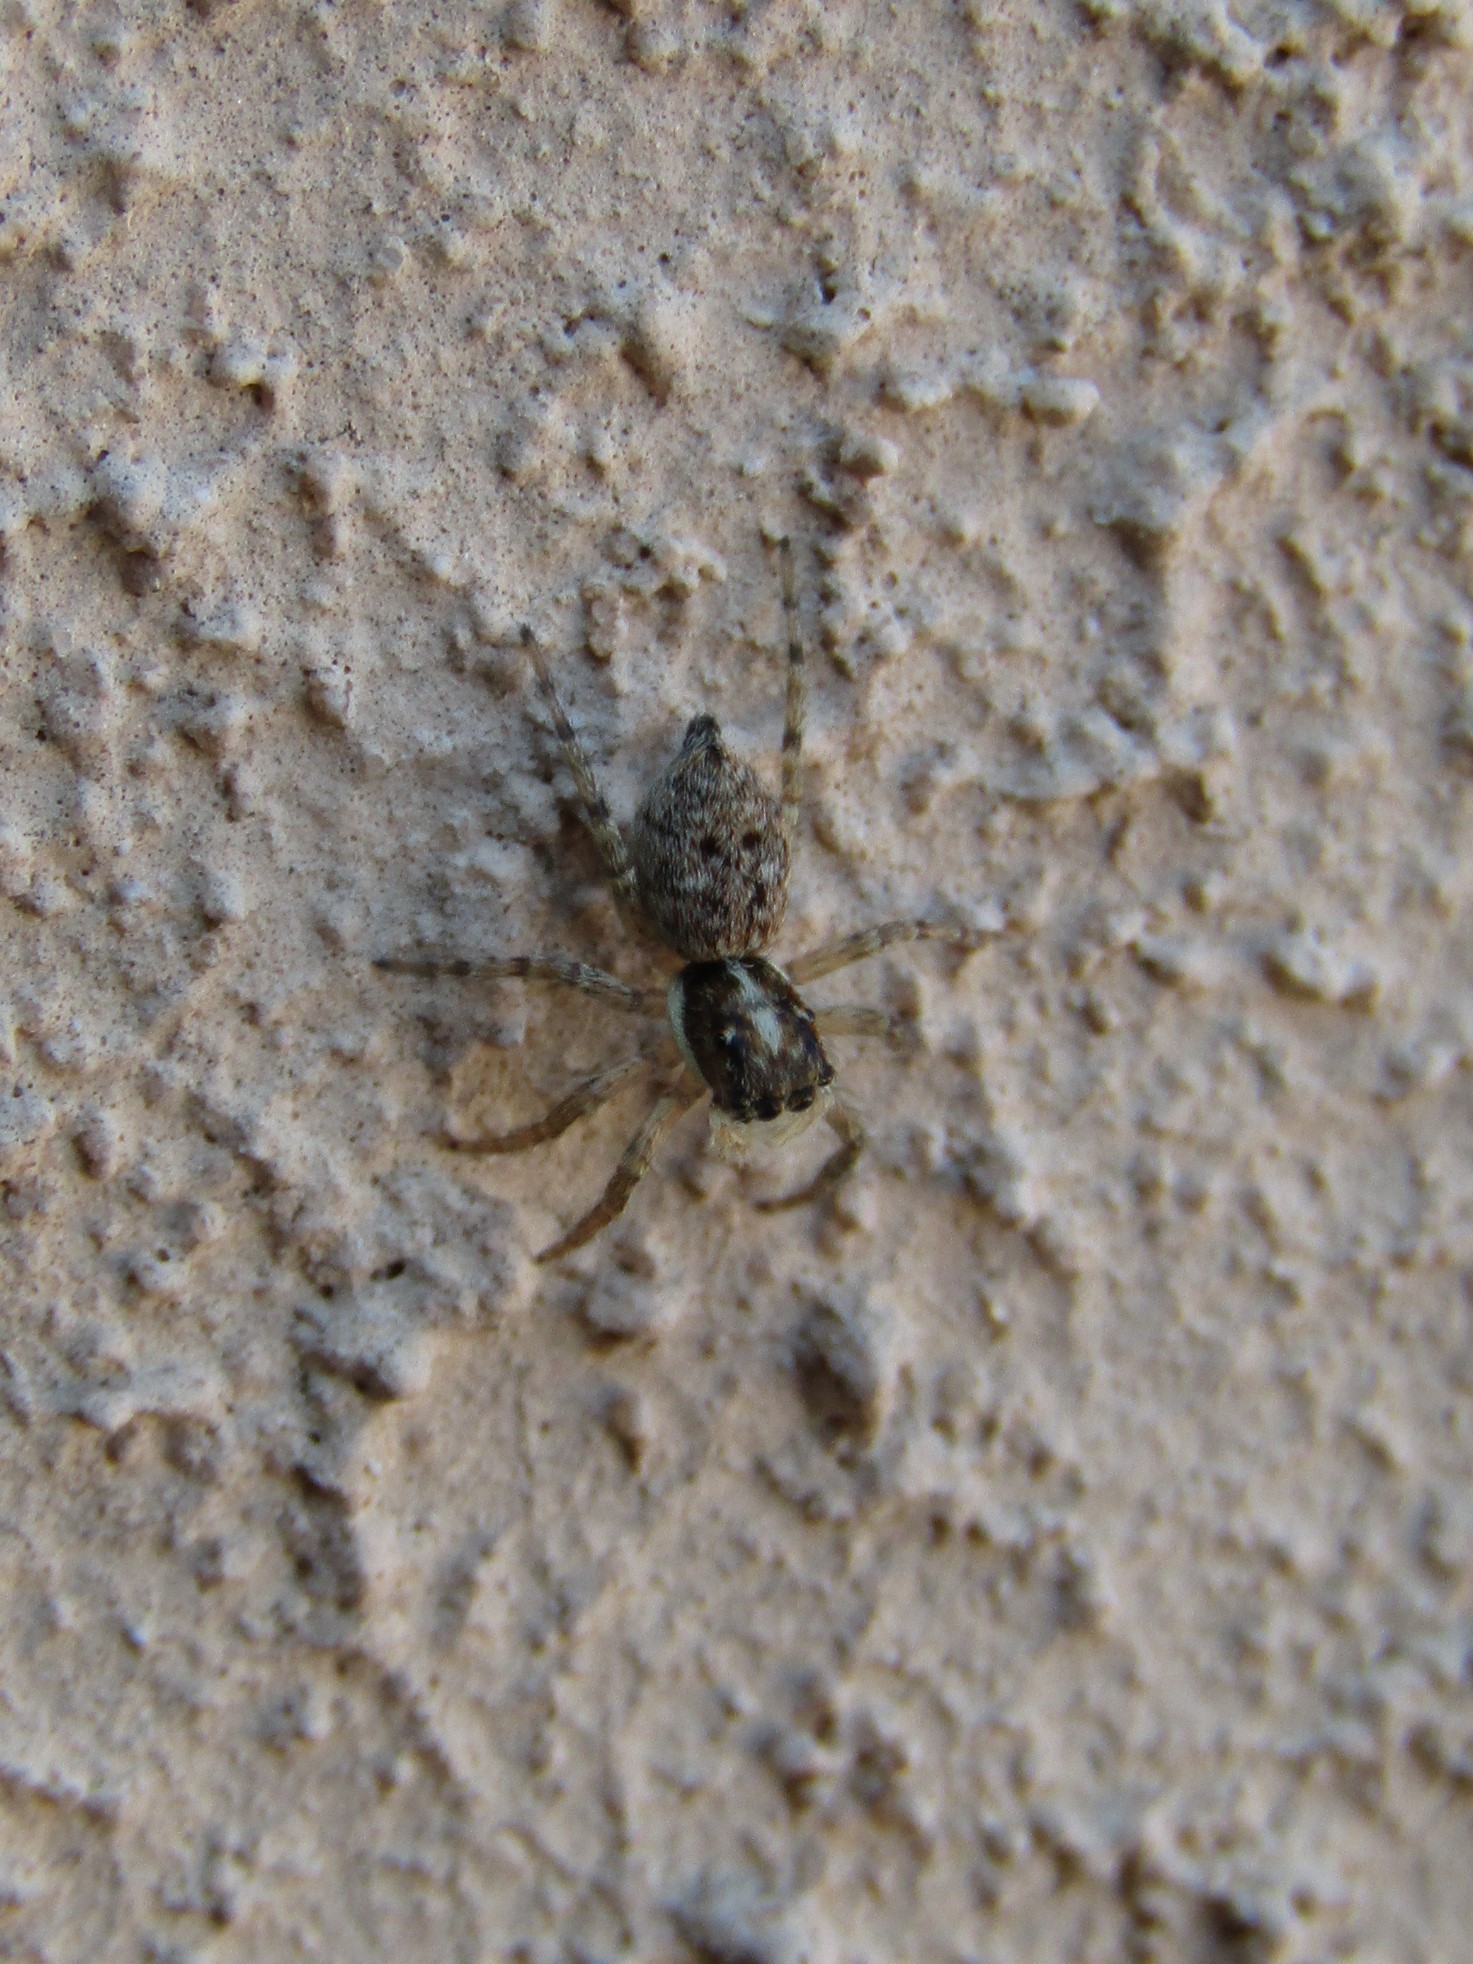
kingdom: Animalia
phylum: Arthropoda
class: Arachnida
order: Araneae
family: Salticidae
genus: Menemerus
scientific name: Menemerus semilimbatus
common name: Jumping spider
